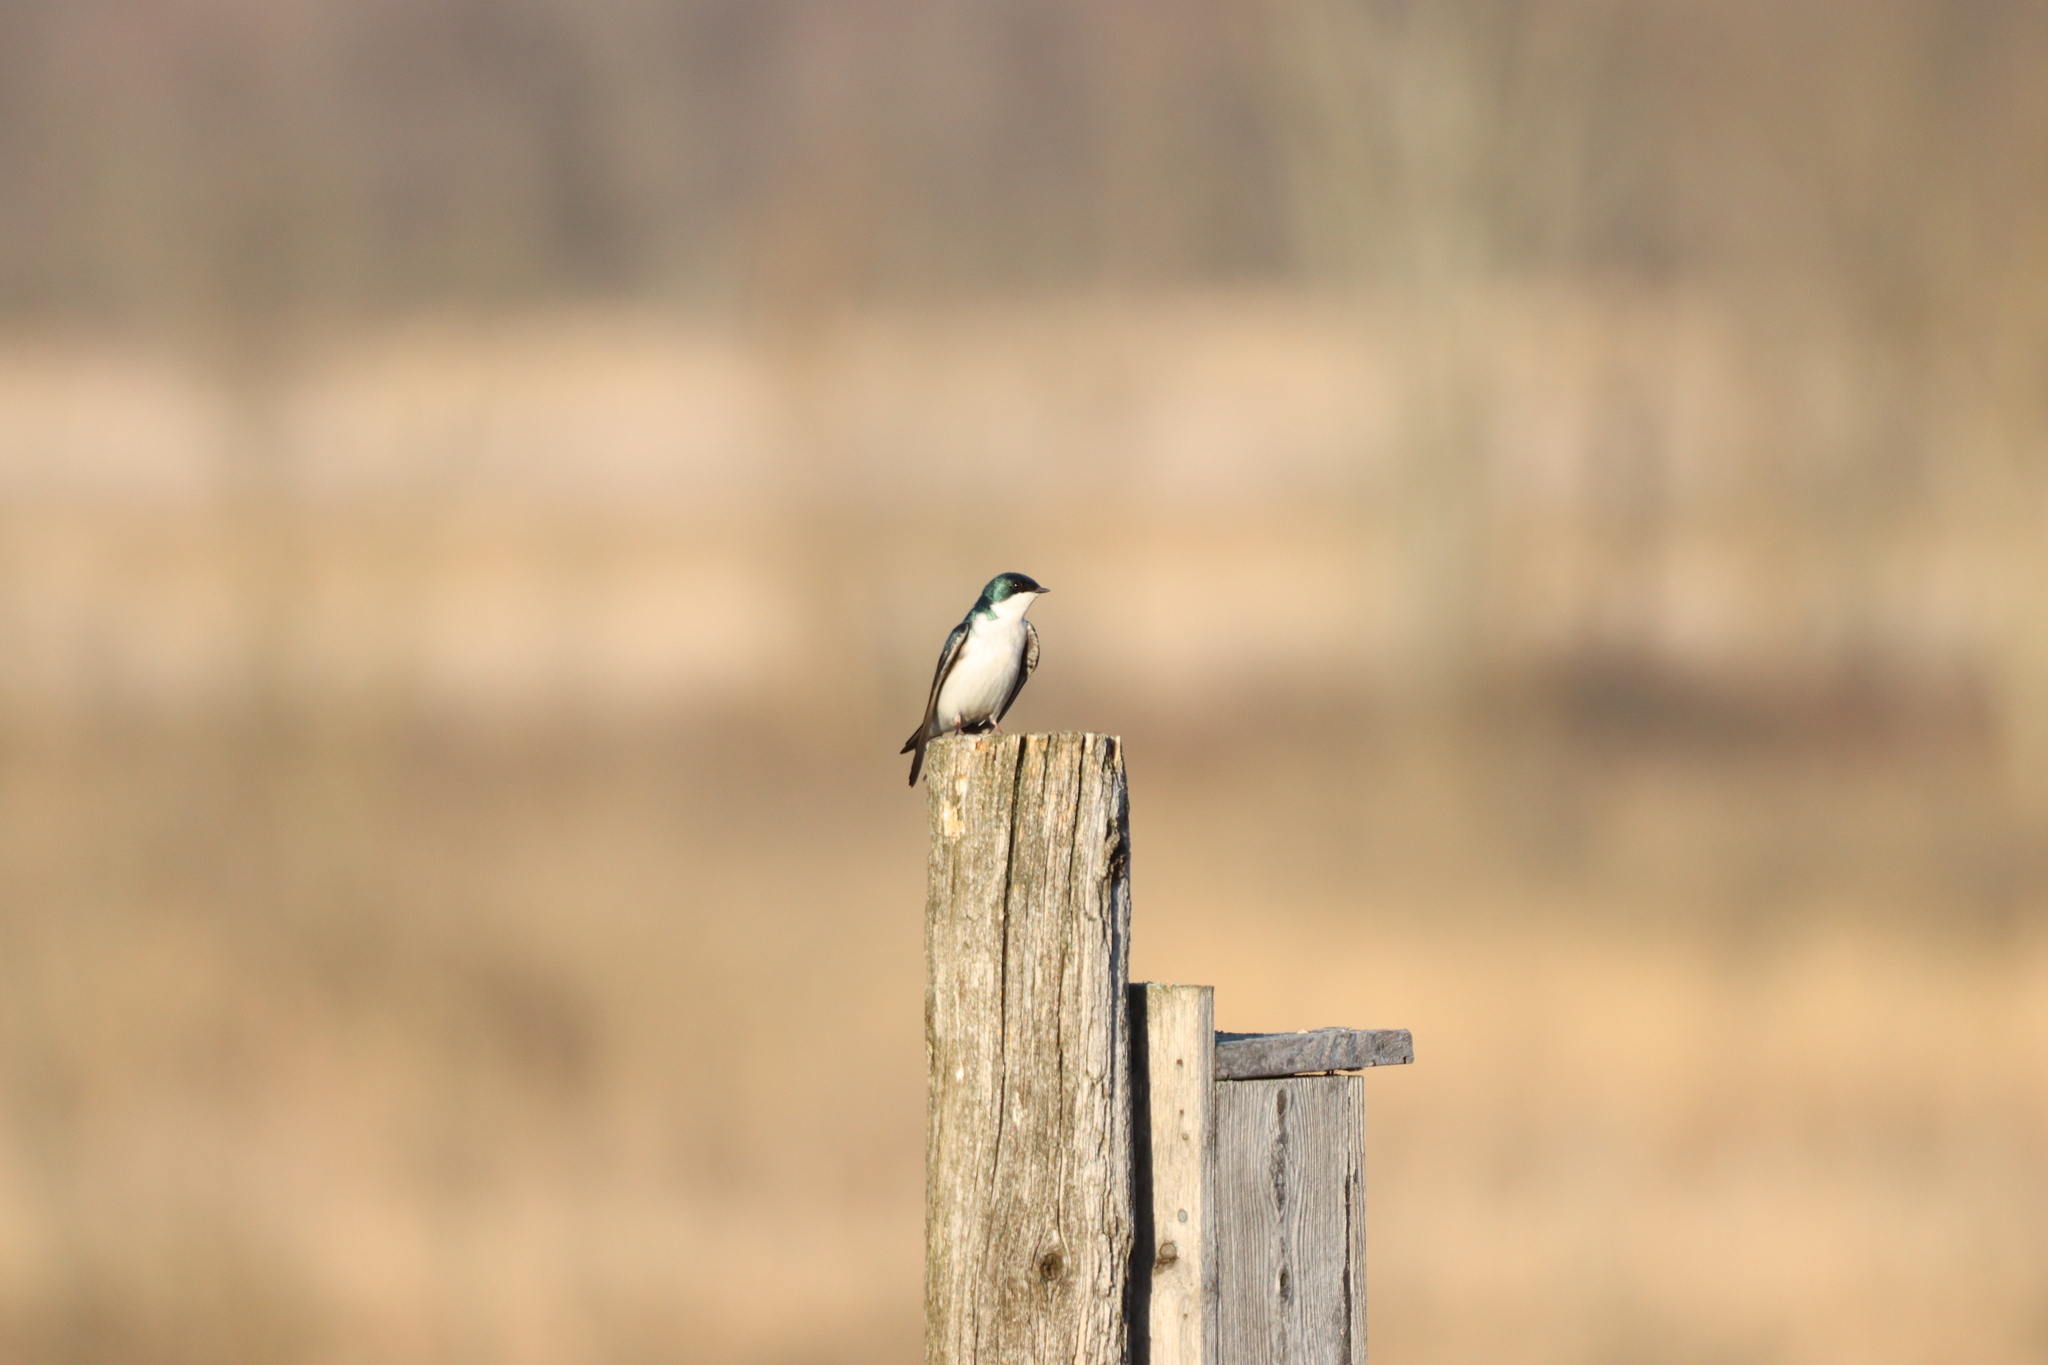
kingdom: Animalia
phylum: Chordata
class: Aves
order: Passeriformes
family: Hirundinidae
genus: Tachycineta
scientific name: Tachycineta bicolor
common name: Tree swallow
